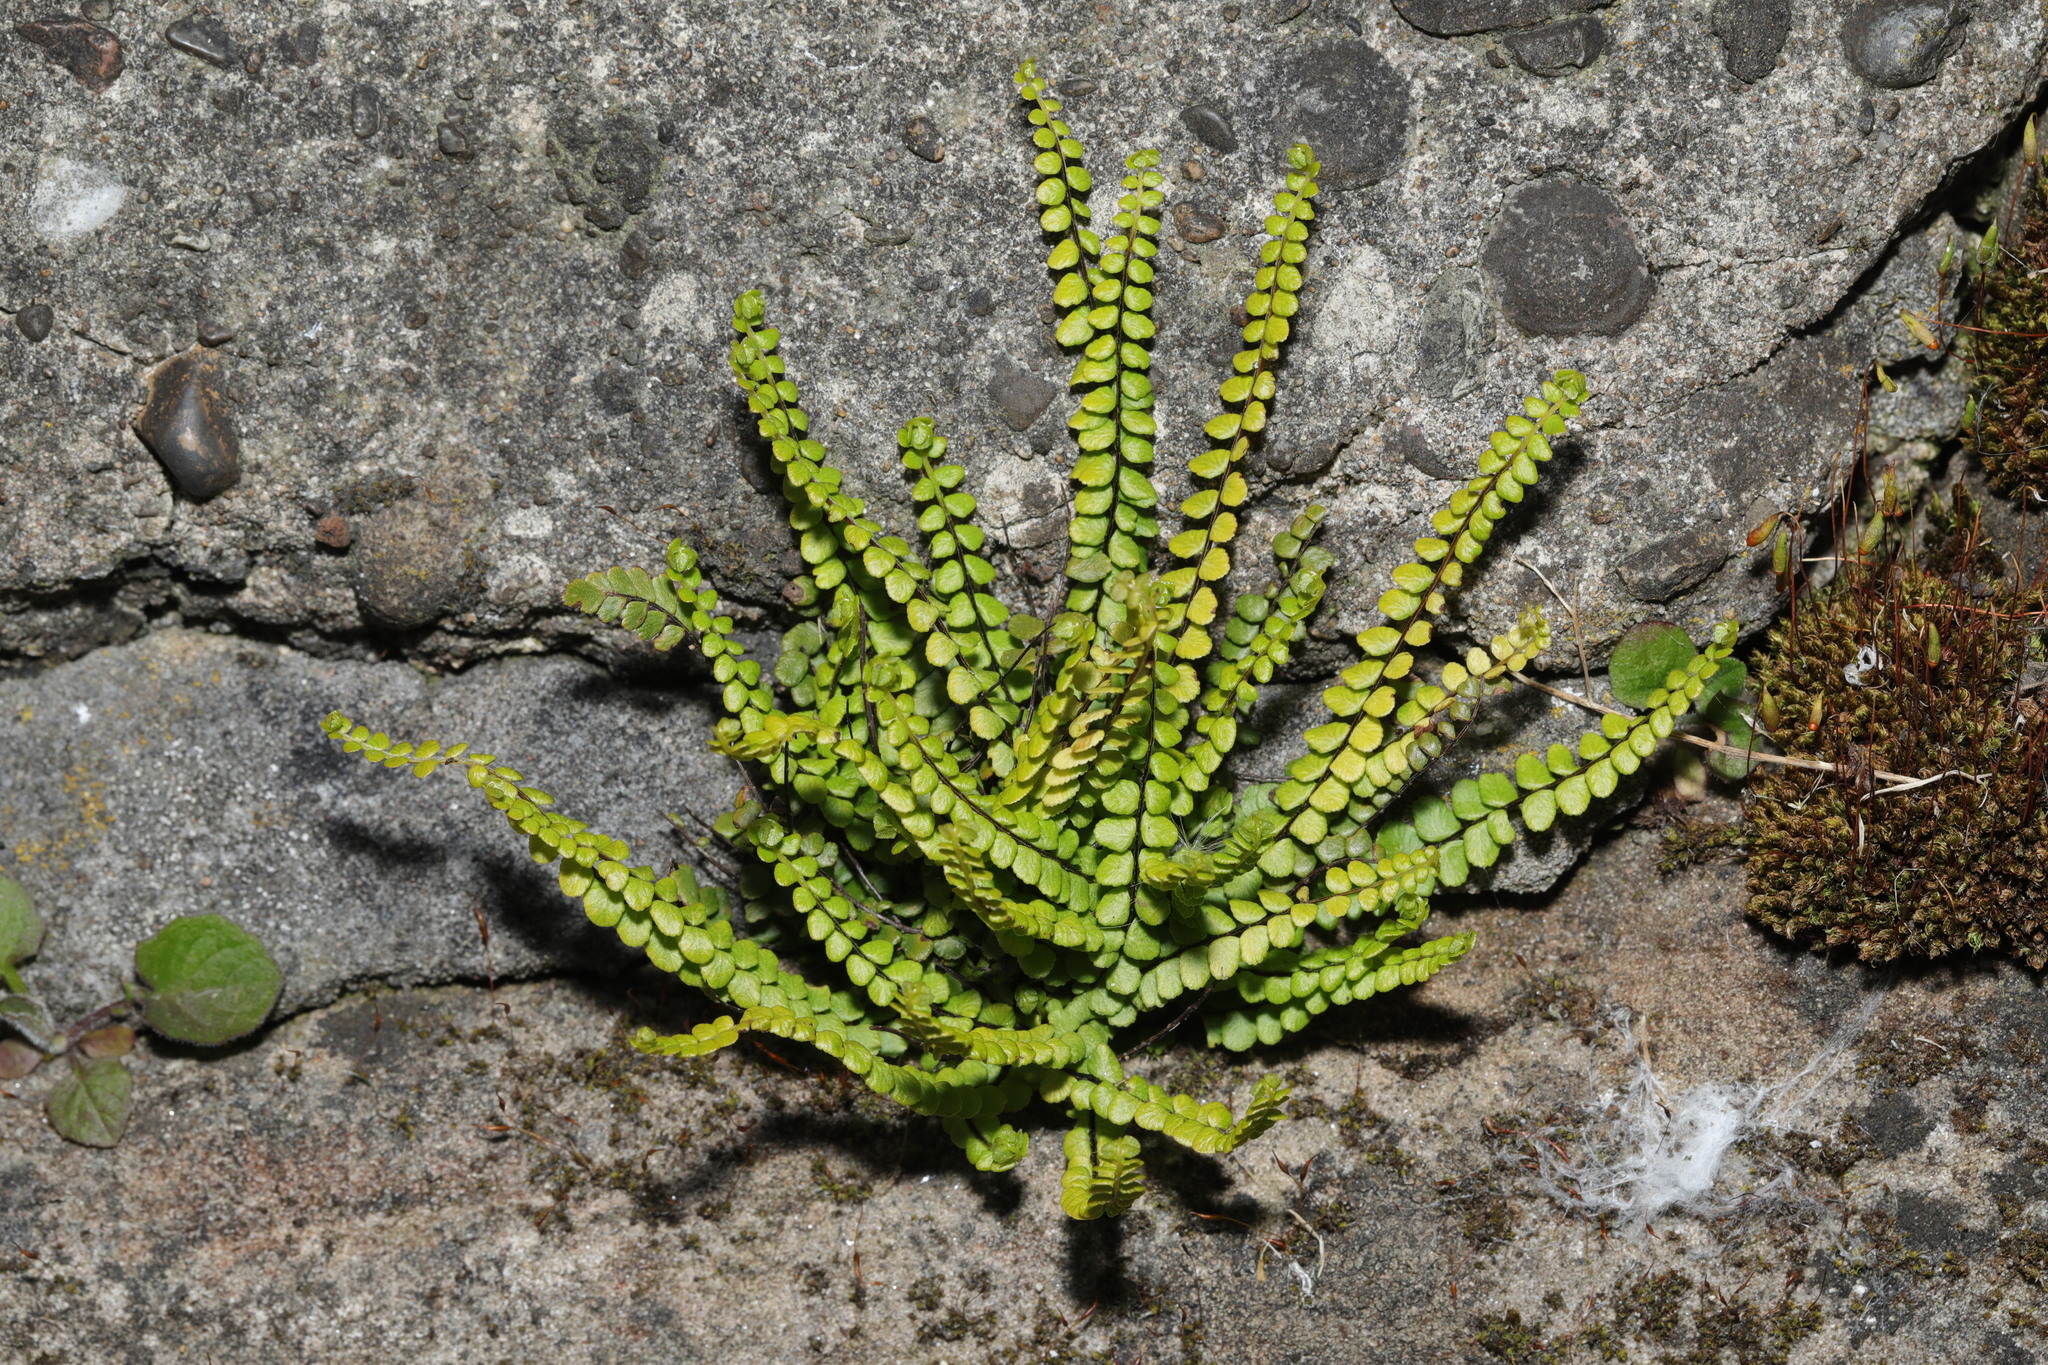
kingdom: Plantae
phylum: Tracheophyta
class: Polypodiopsida
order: Polypodiales
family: Aspleniaceae
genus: Asplenium
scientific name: Asplenium trichomanes
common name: Maidenhair spleenwort
